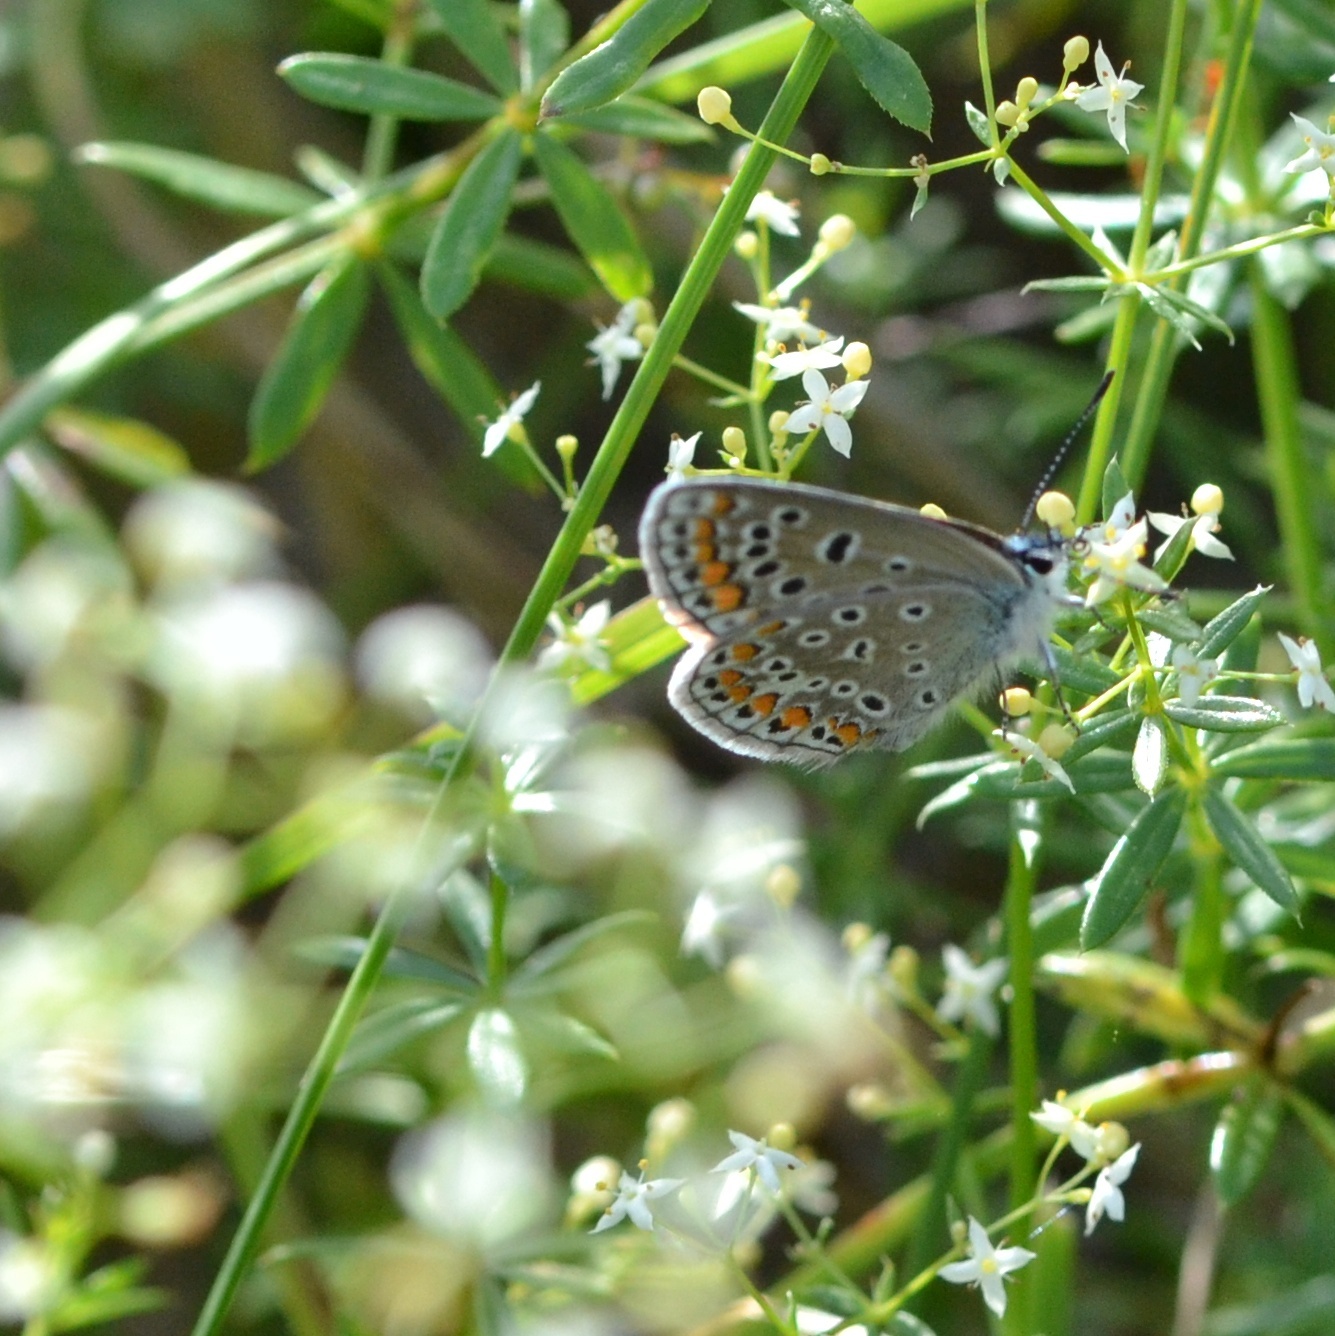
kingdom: Animalia
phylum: Arthropoda
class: Insecta
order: Lepidoptera
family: Lycaenidae
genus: Polyommatus
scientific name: Polyommatus icarus
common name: Common blue
